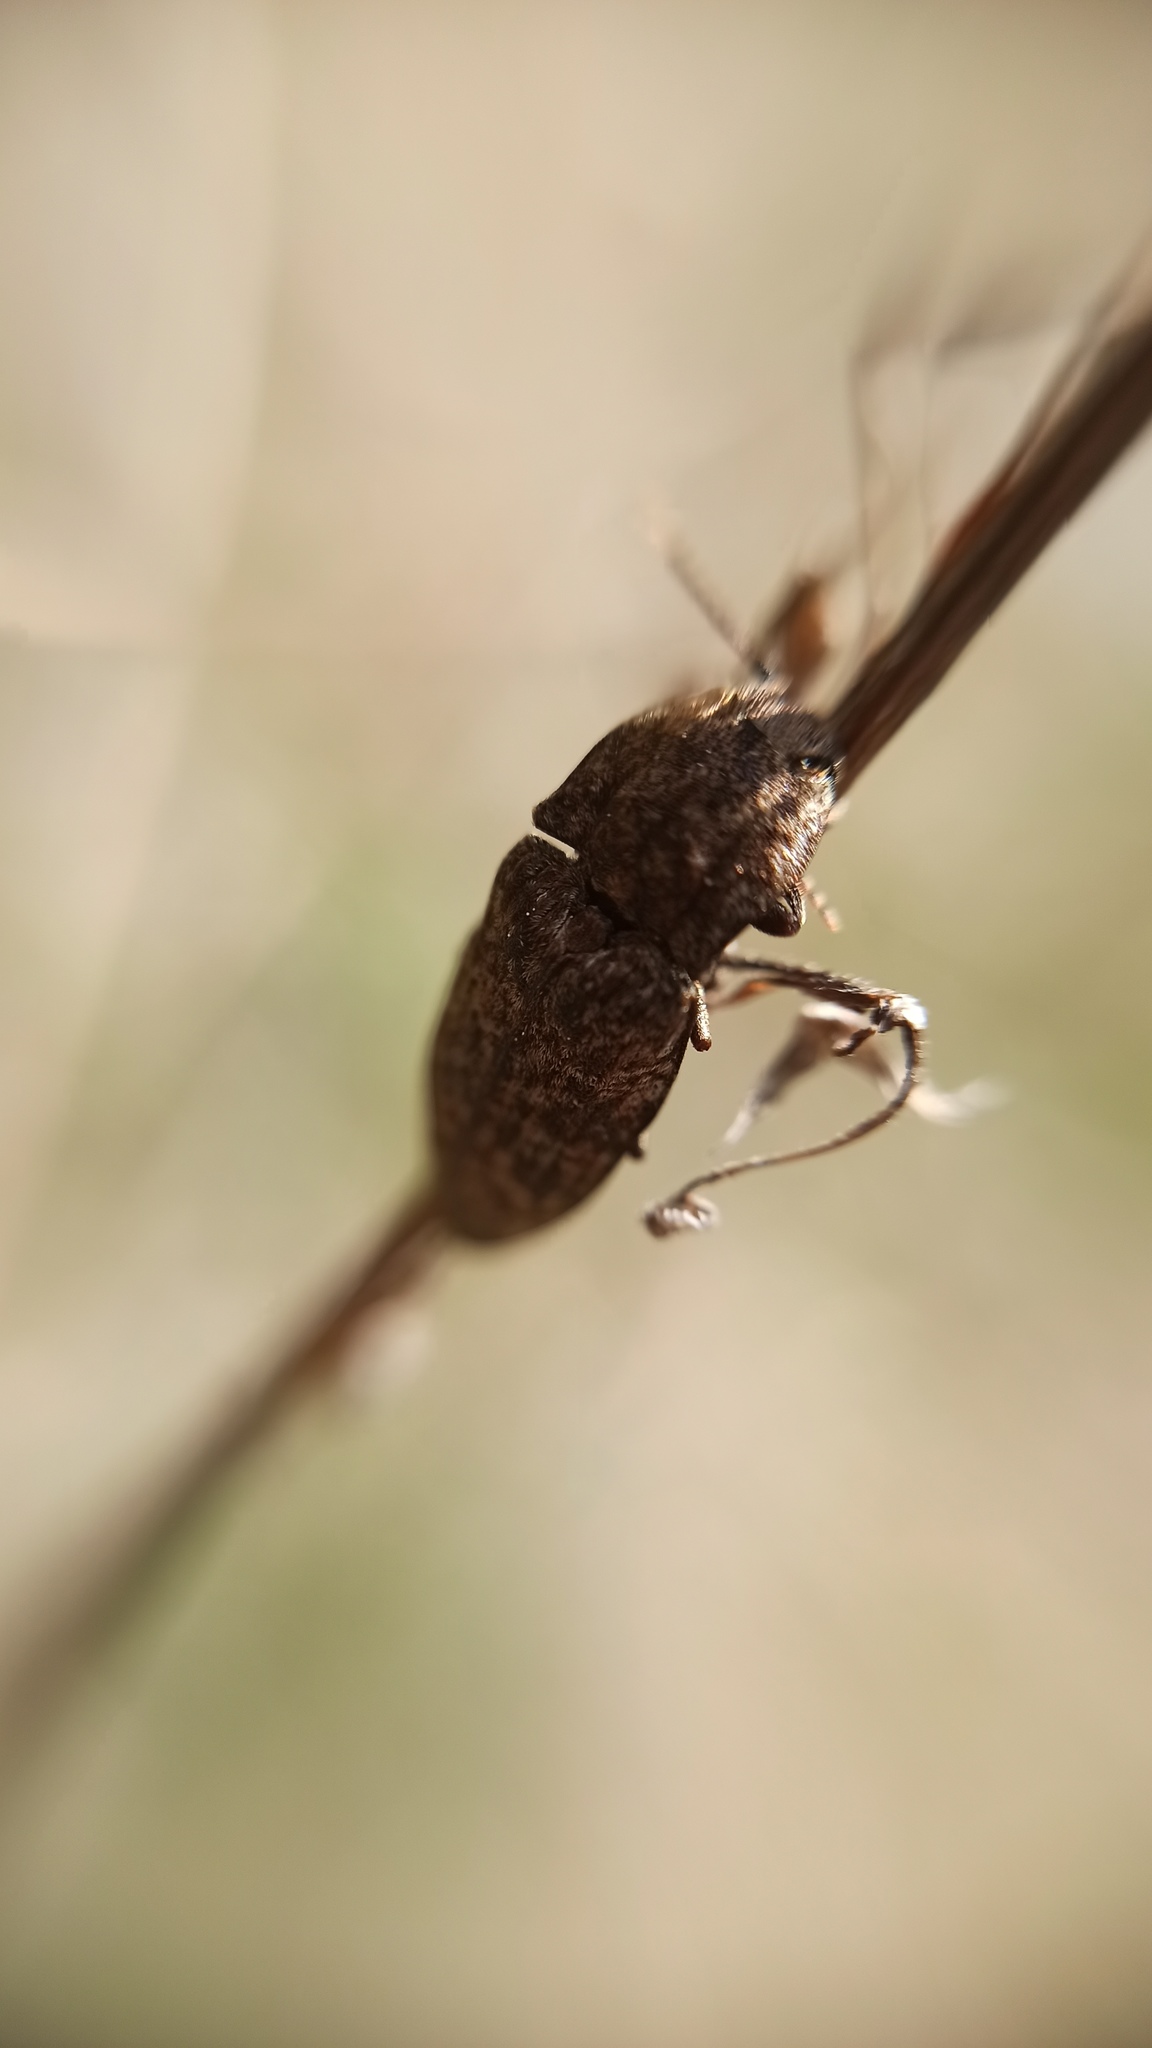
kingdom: Animalia
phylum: Arthropoda
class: Insecta
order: Coleoptera
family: Elateridae
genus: Agrypnus
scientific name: Agrypnus murinus
